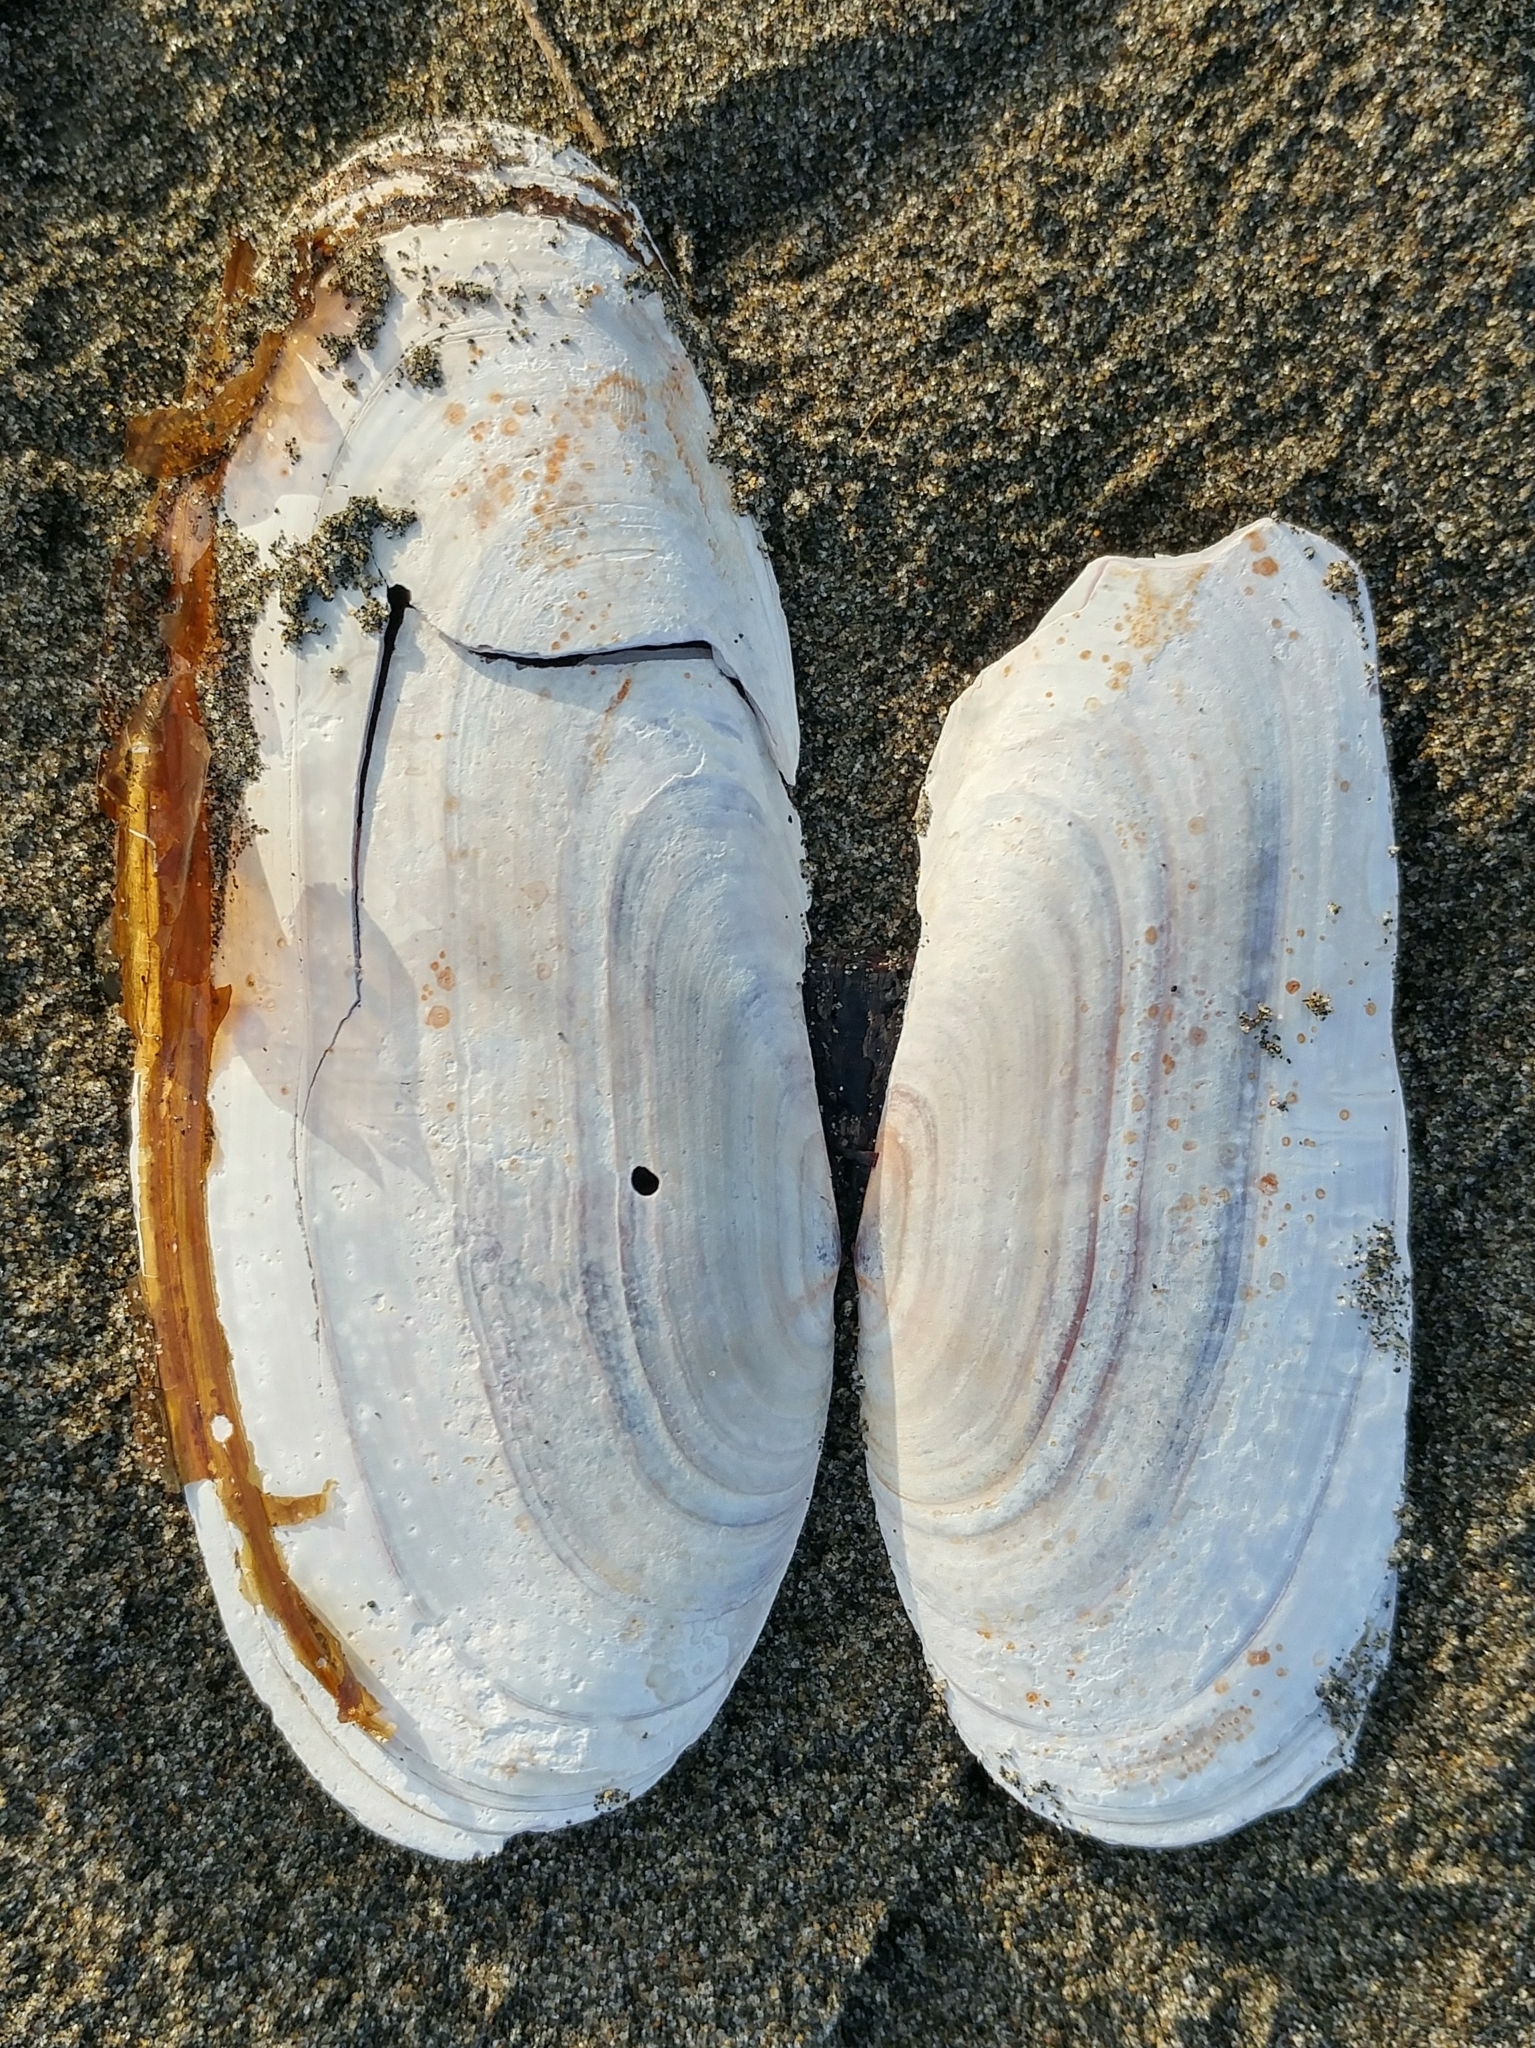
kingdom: Animalia
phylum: Mollusca
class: Bivalvia
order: Adapedonta
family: Pharidae
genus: Siliqua
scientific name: Siliqua patula
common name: Pacific razor clam
